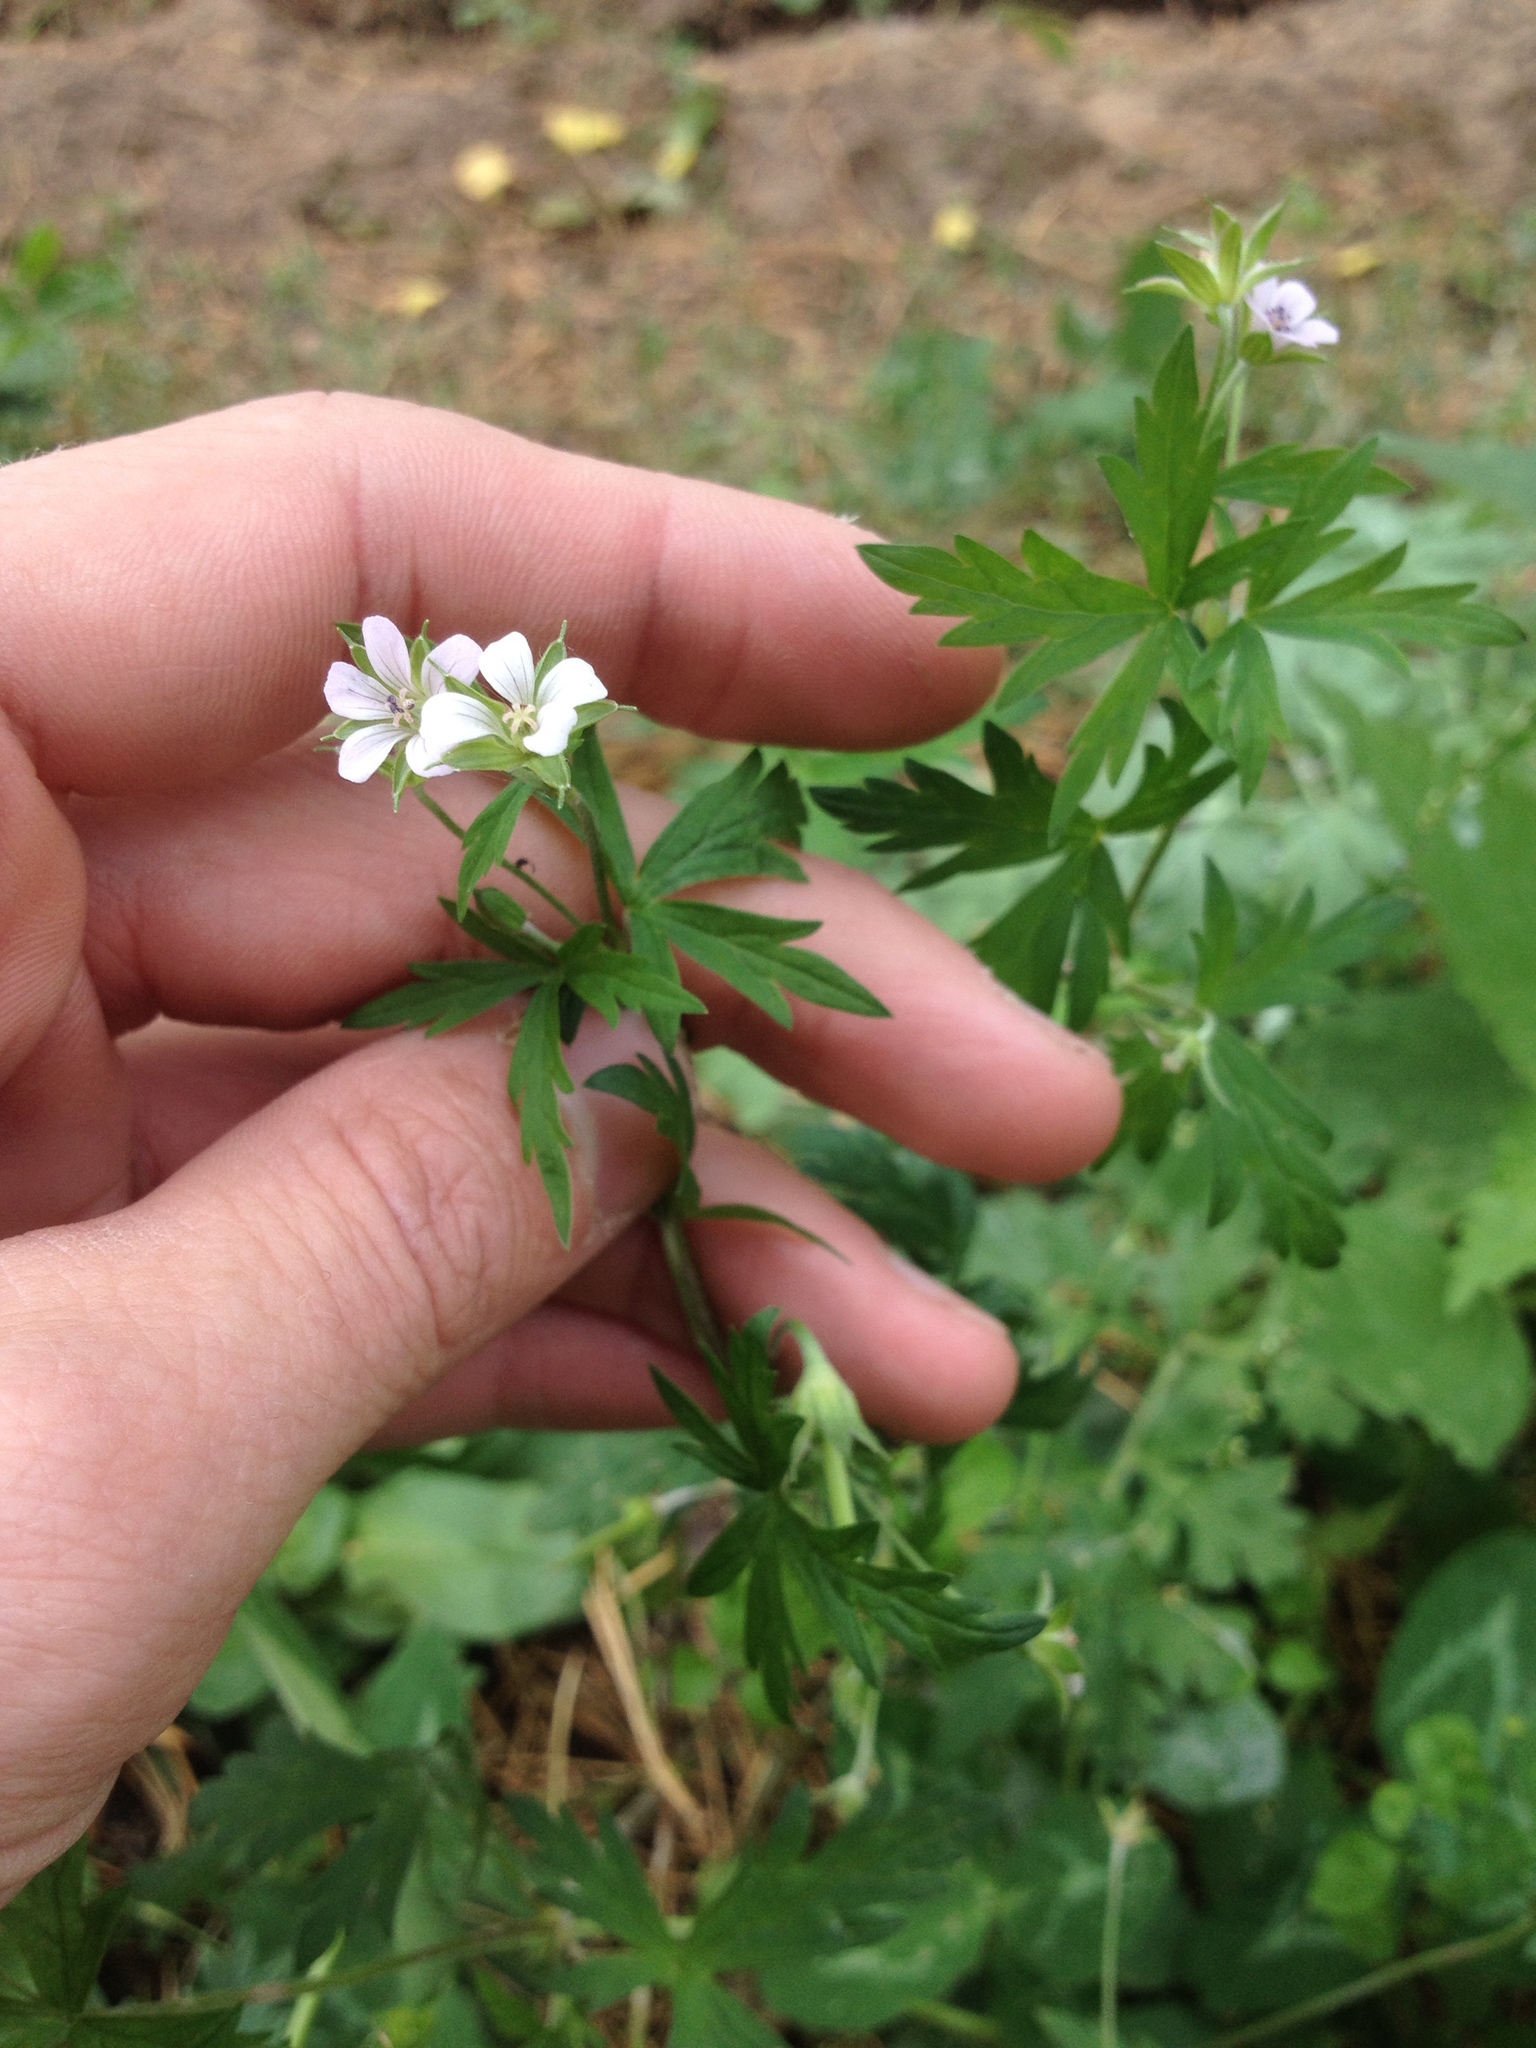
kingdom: Plantae
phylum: Tracheophyta
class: Magnoliopsida
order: Geraniales
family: Geraniaceae
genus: Geranium
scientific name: Geranium sibiricum
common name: Siberian crane's-bill
